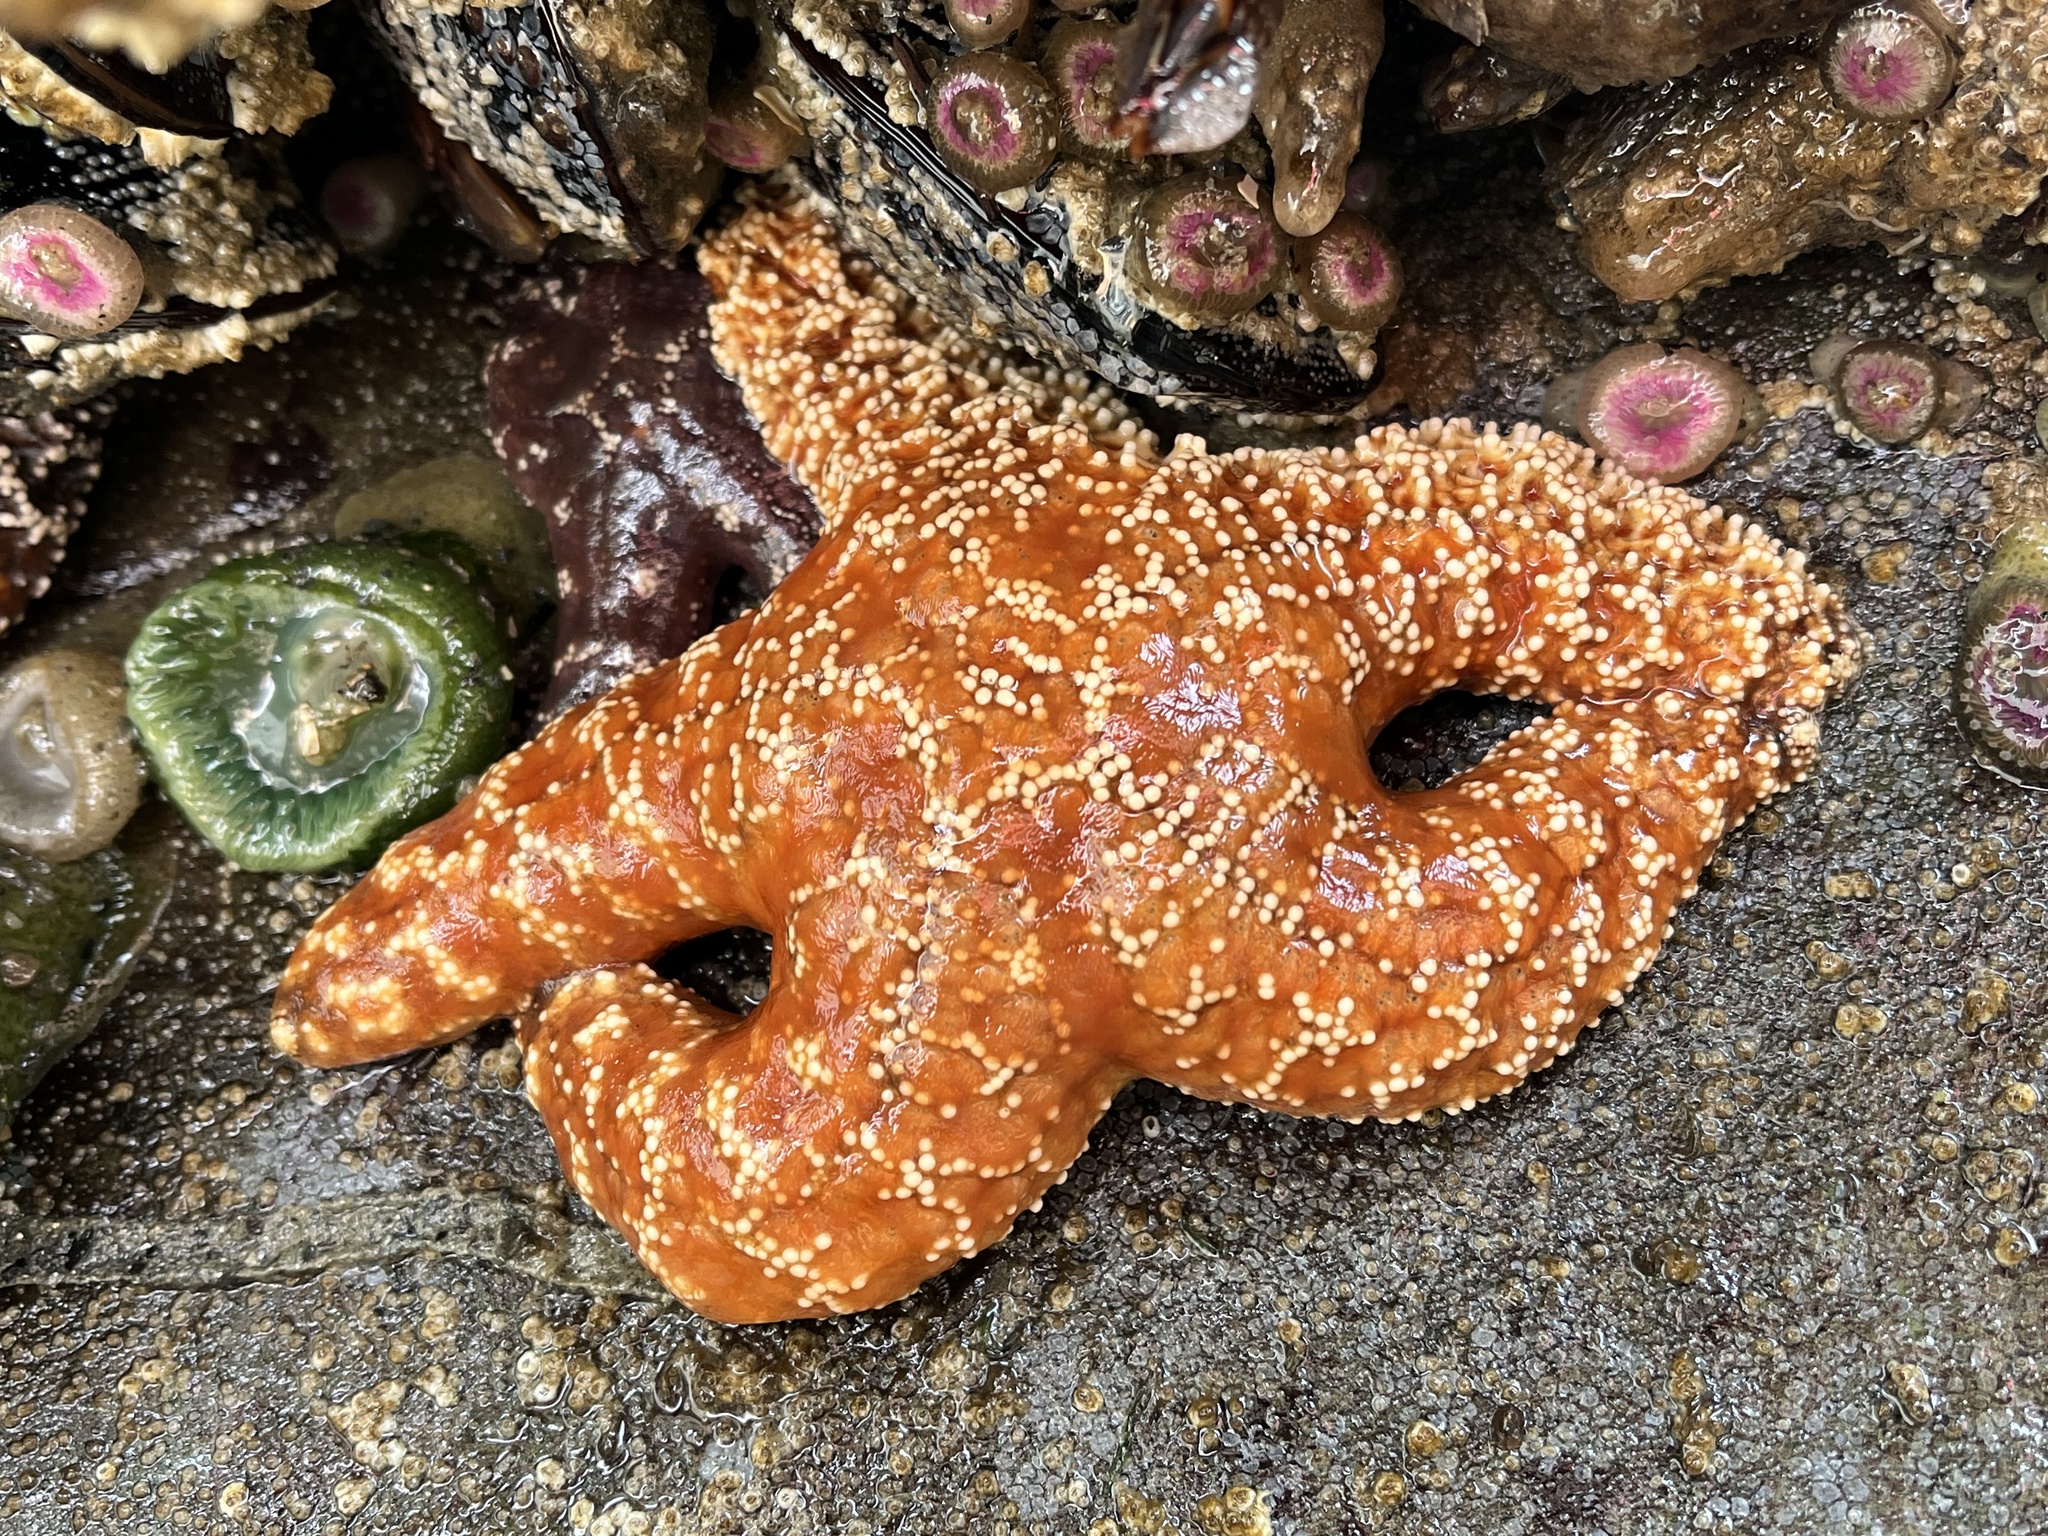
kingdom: Animalia
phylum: Echinodermata
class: Asteroidea
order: Forcipulatida
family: Asteriidae
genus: Pisaster
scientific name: Pisaster ochraceus
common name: Ochre stars
